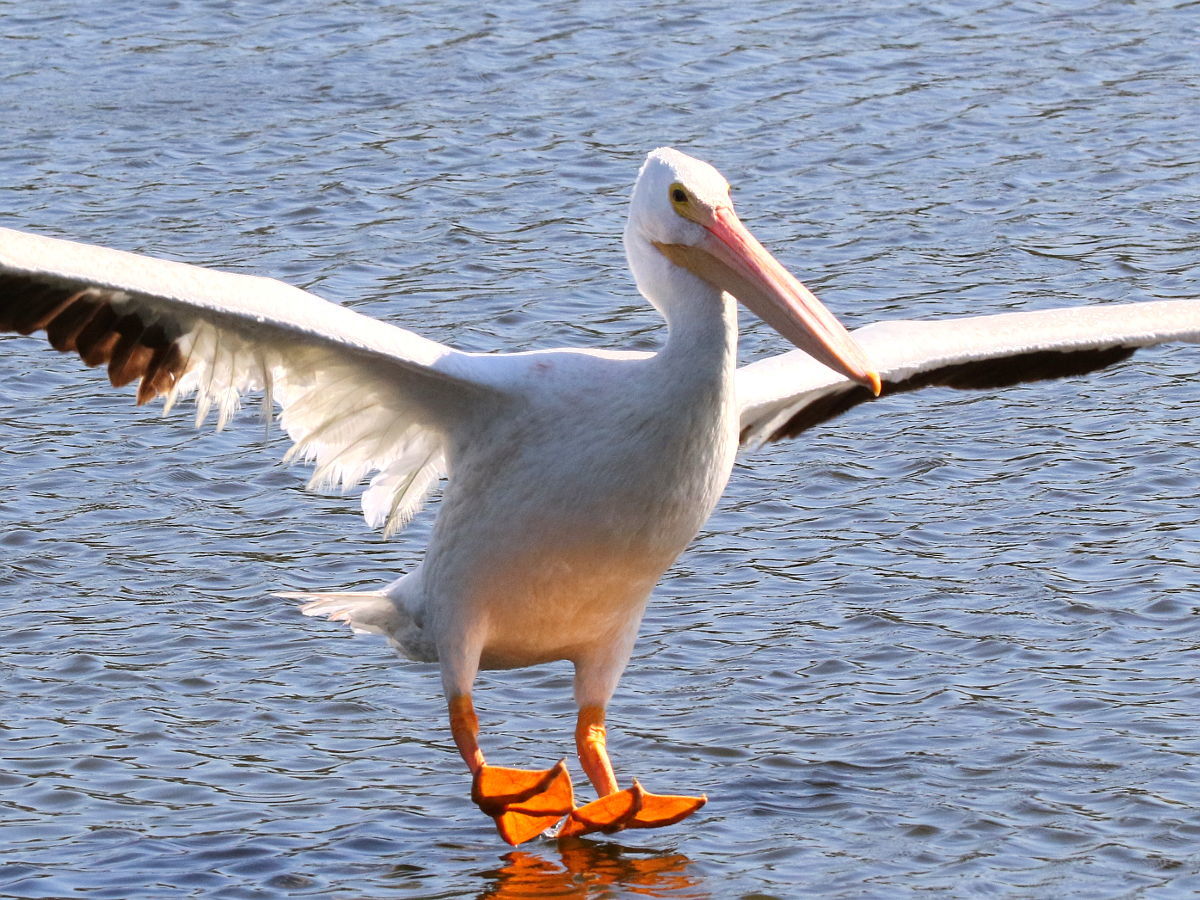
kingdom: Animalia
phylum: Chordata
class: Aves
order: Pelecaniformes
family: Pelecanidae
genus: Pelecanus
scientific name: Pelecanus erythrorhynchos
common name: American white pelican
